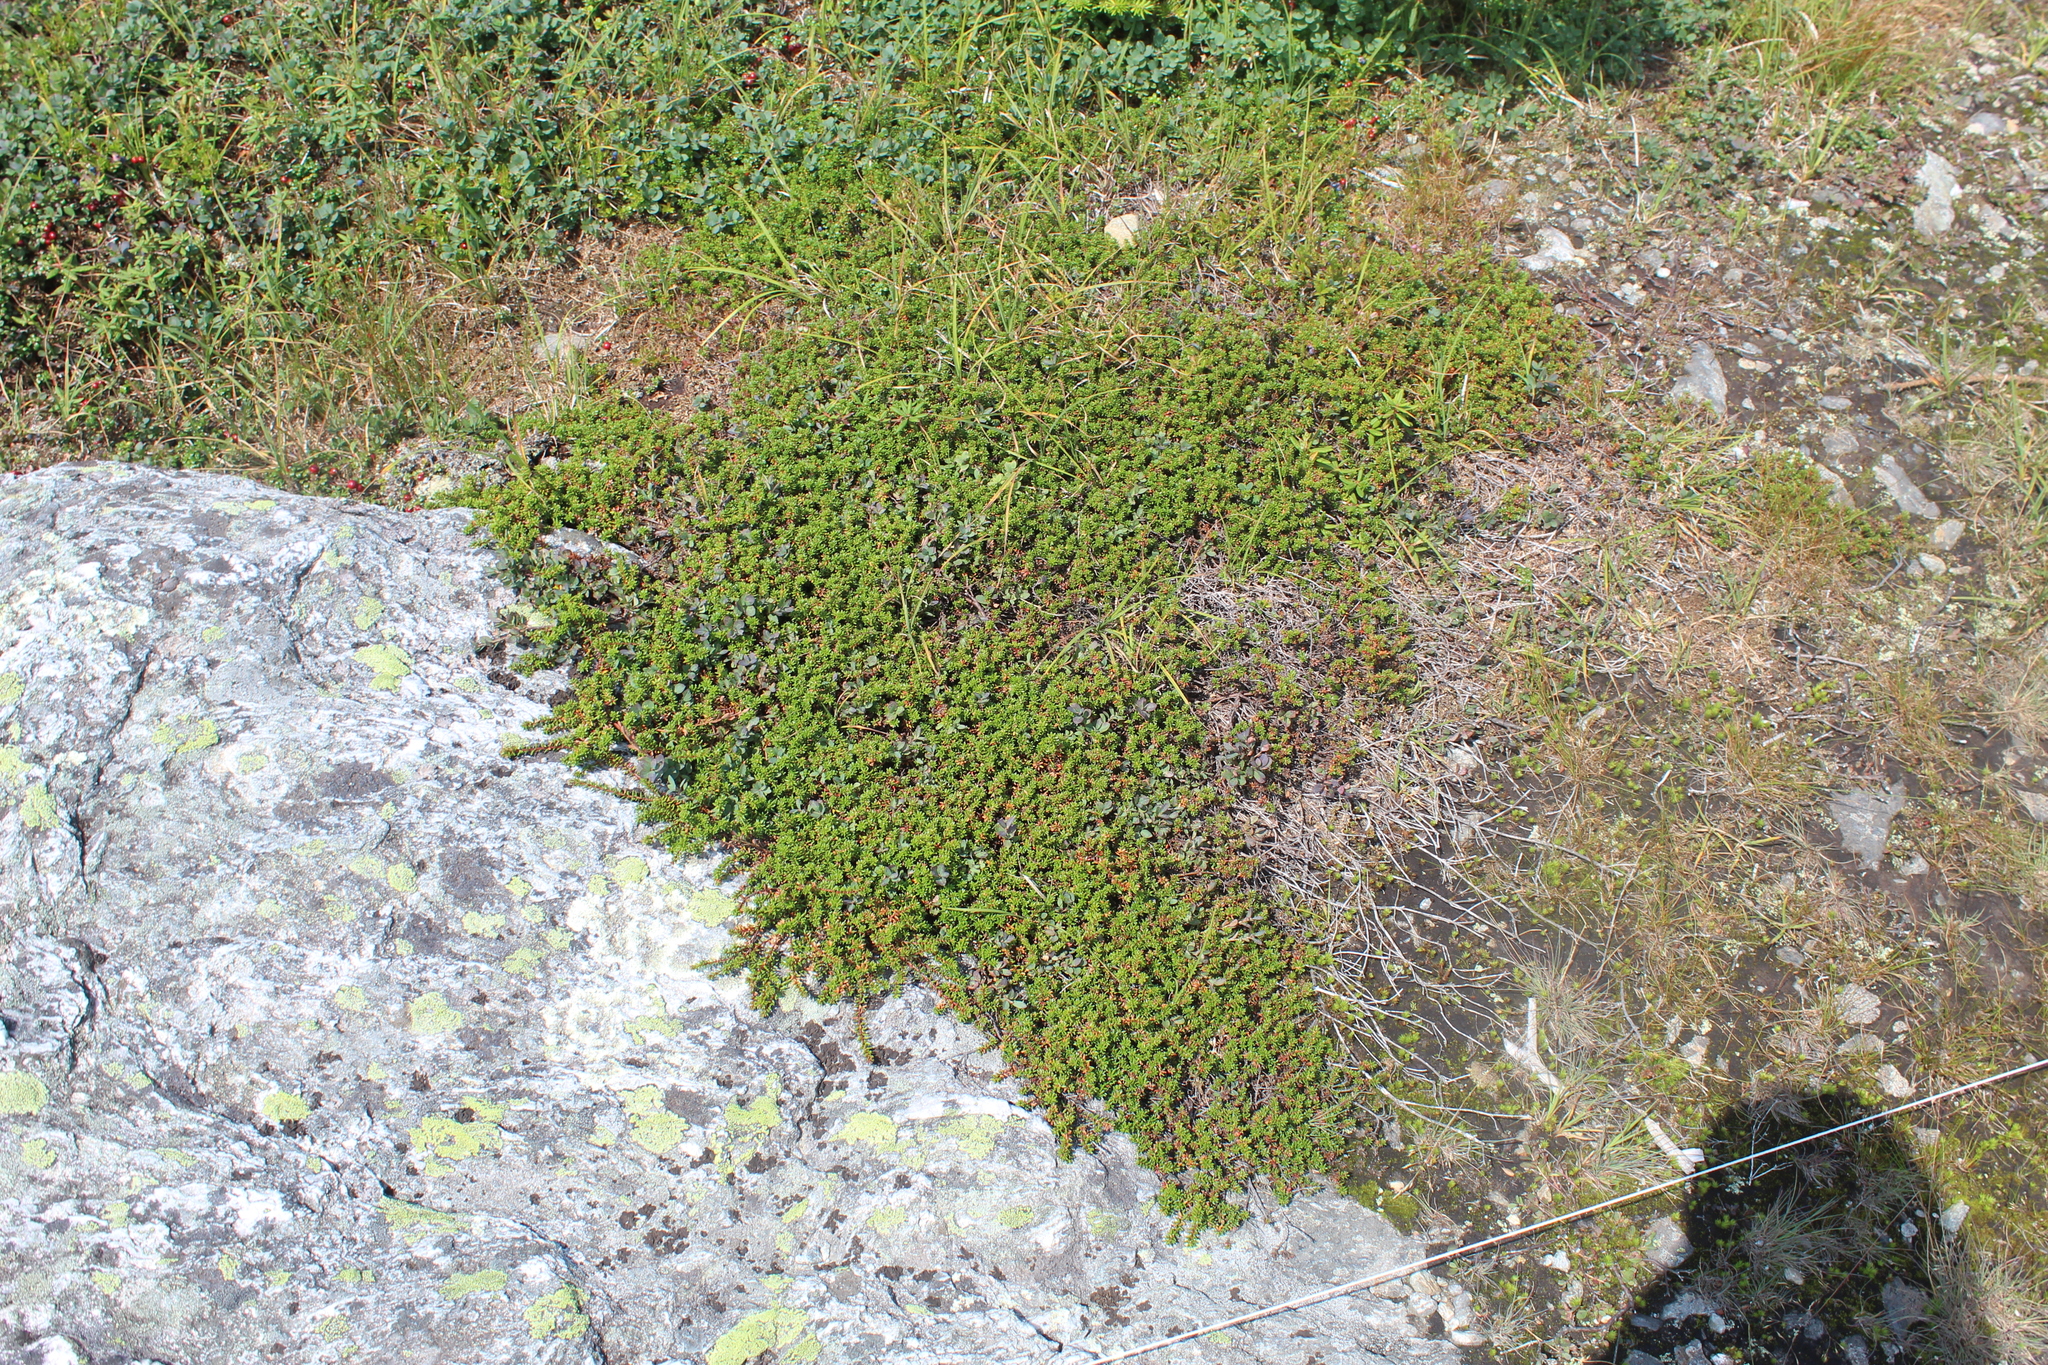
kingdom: Plantae
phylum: Tracheophyta
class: Magnoliopsida
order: Ericales
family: Ericaceae
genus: Empetrum
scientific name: Empetrum hermaphroditum
